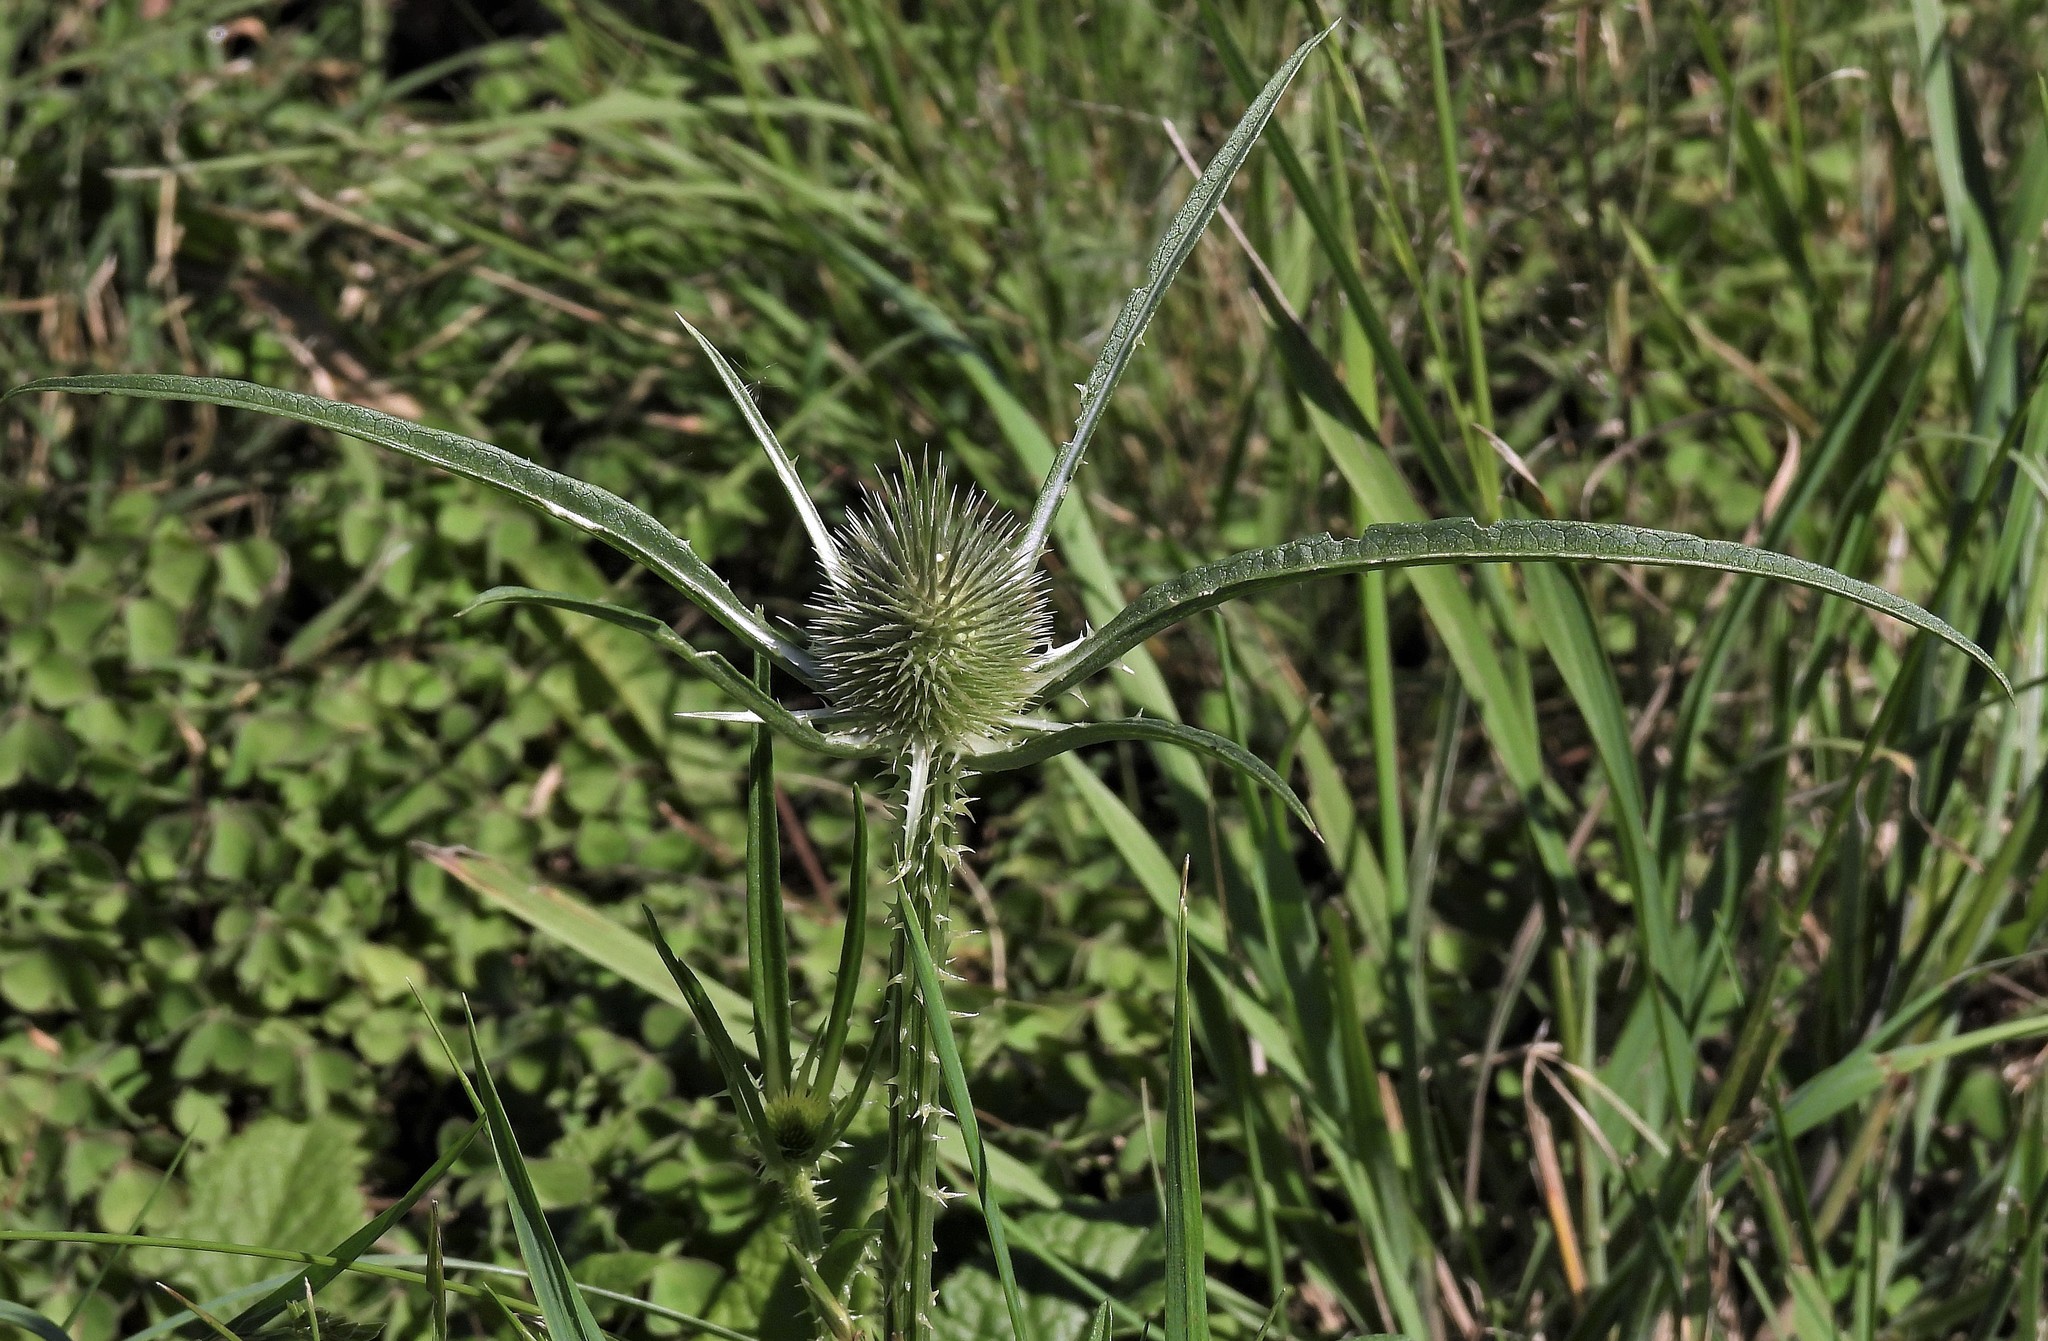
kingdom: Plantae
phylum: Tracheophyta
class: Magnoliopsida
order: Dipsacales
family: Caprifoliaceae
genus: Dipsacus
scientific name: Dipsacus fullonum
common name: Teasel
